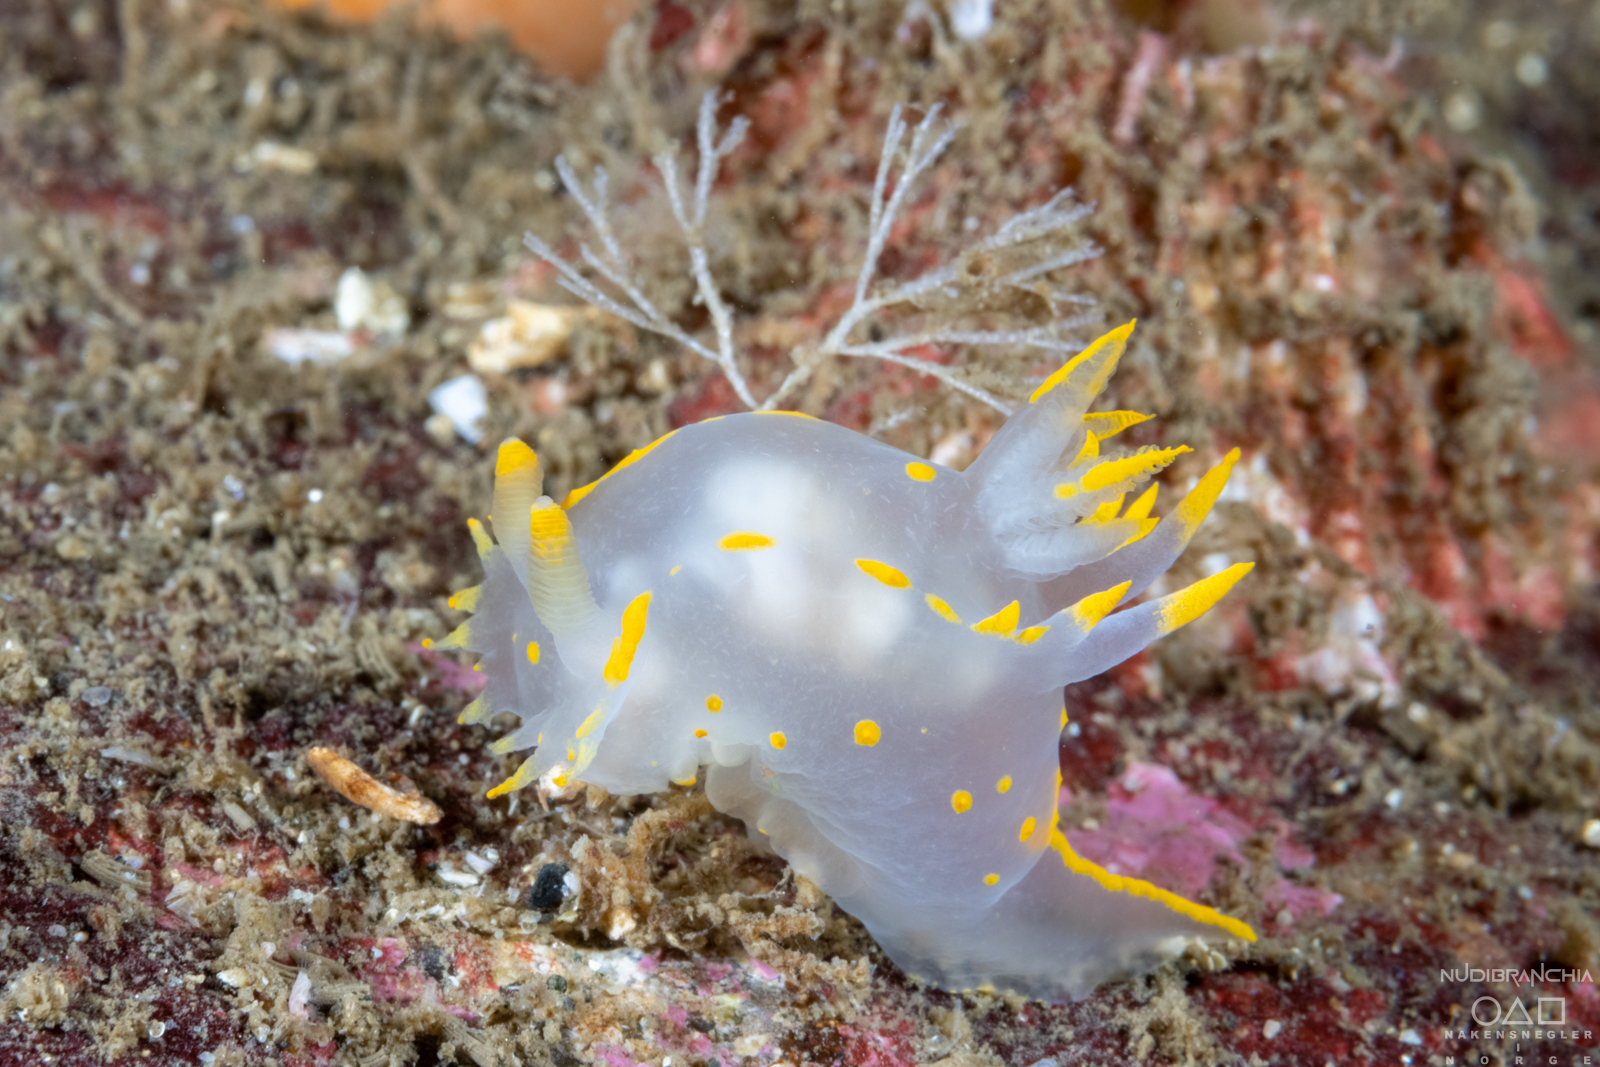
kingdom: Animalia
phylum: Mollusca
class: Gastropoda
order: Nudibranchia
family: Polyceridae
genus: Polycera
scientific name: Polycera faeroensis
